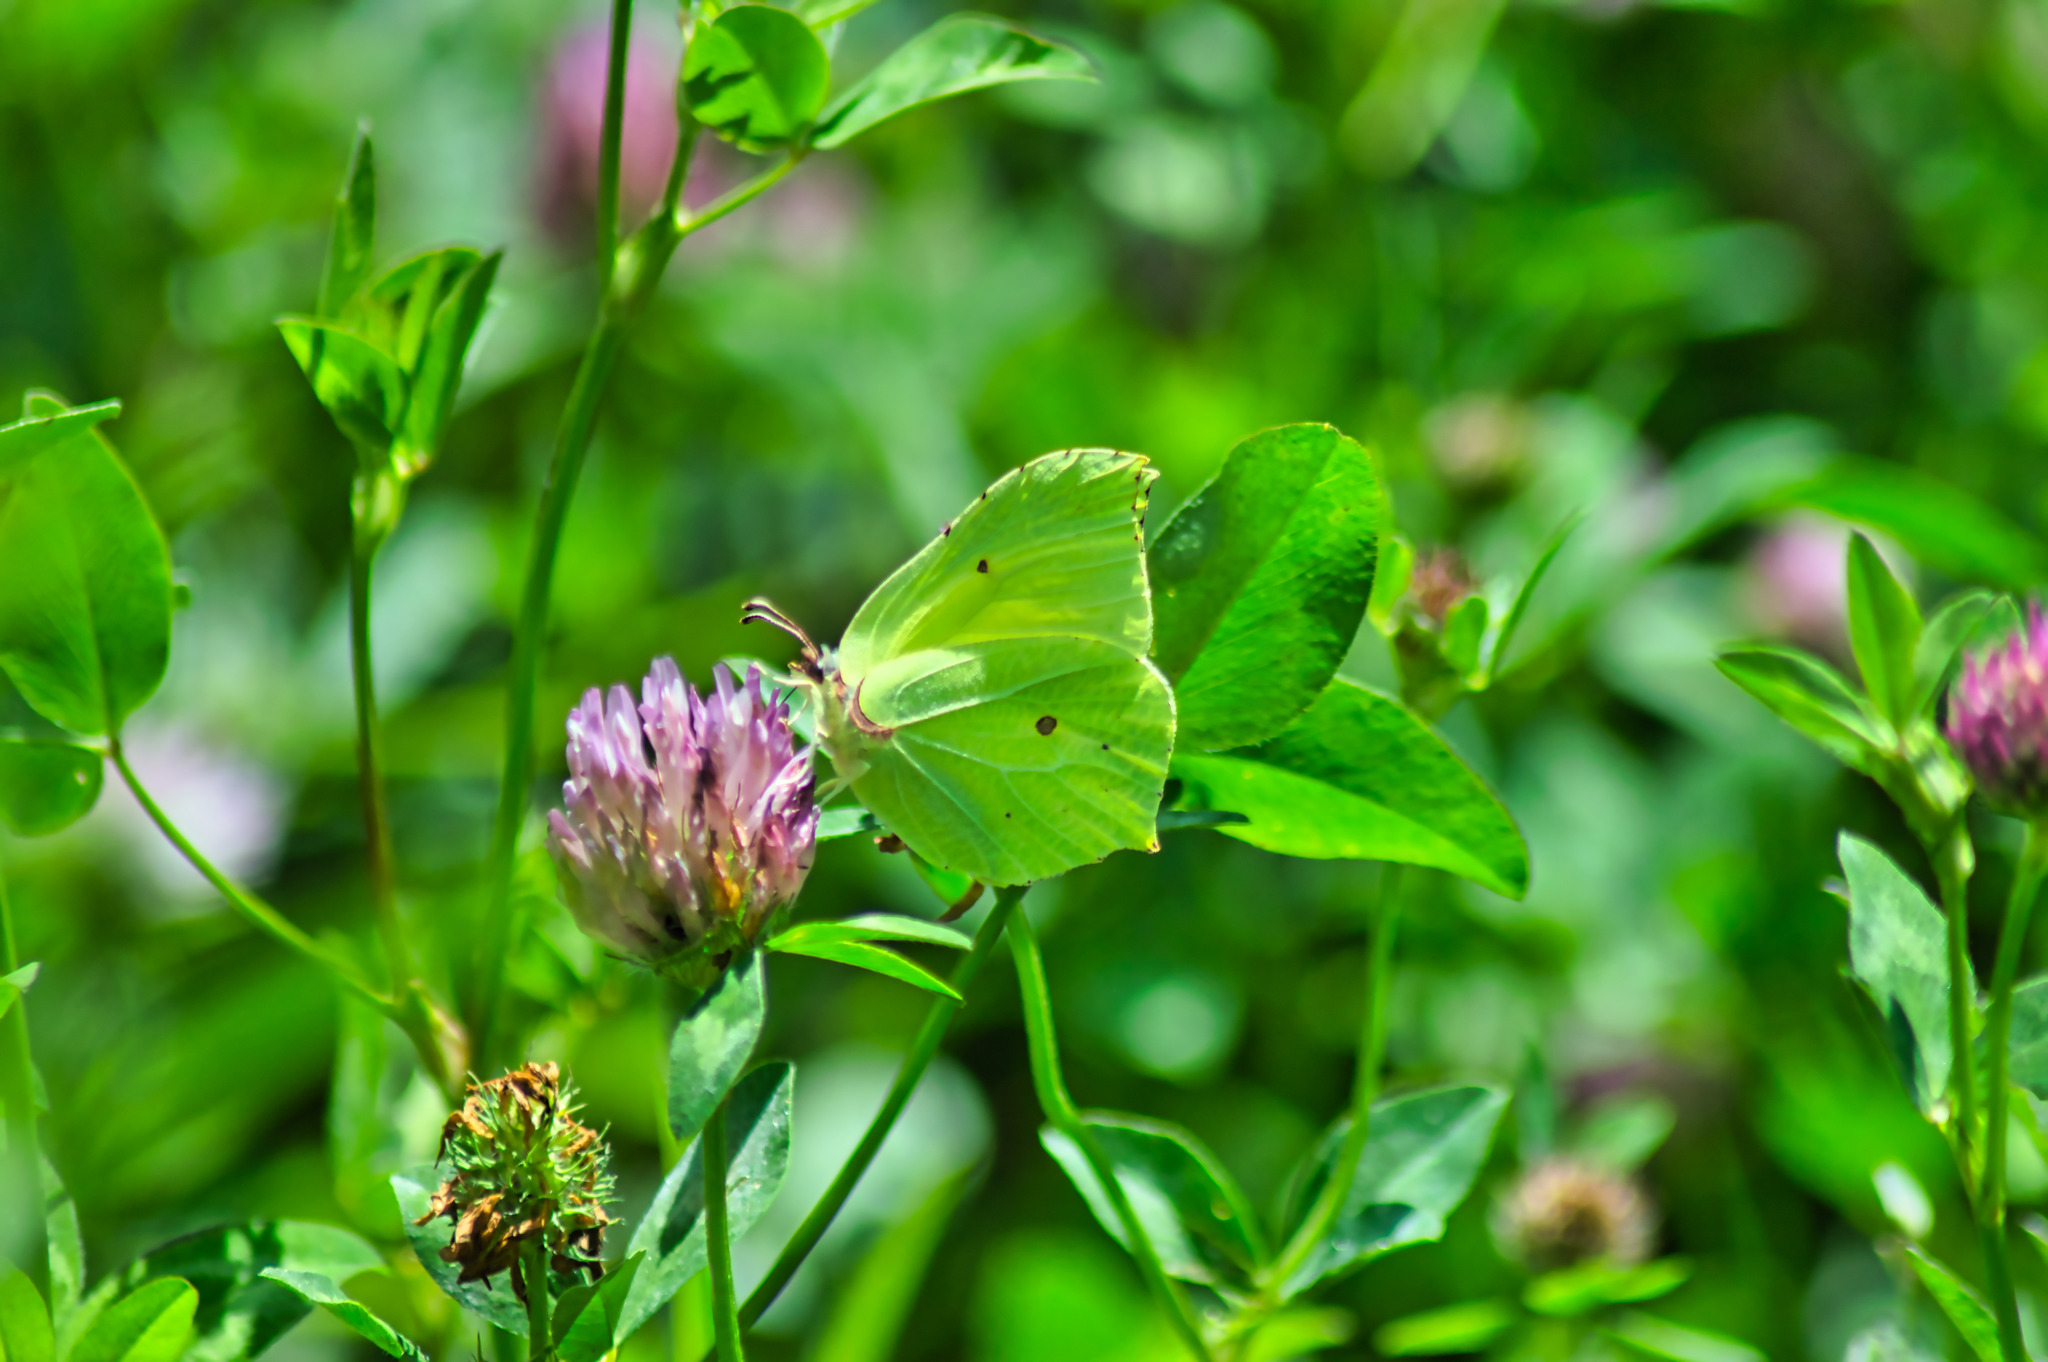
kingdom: Animalia
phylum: Arthropoda
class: Insecta
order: Lepidoptera
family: Pieridae
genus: Gonepteryx
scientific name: Gonepteryx rhamni
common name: Brimstone
